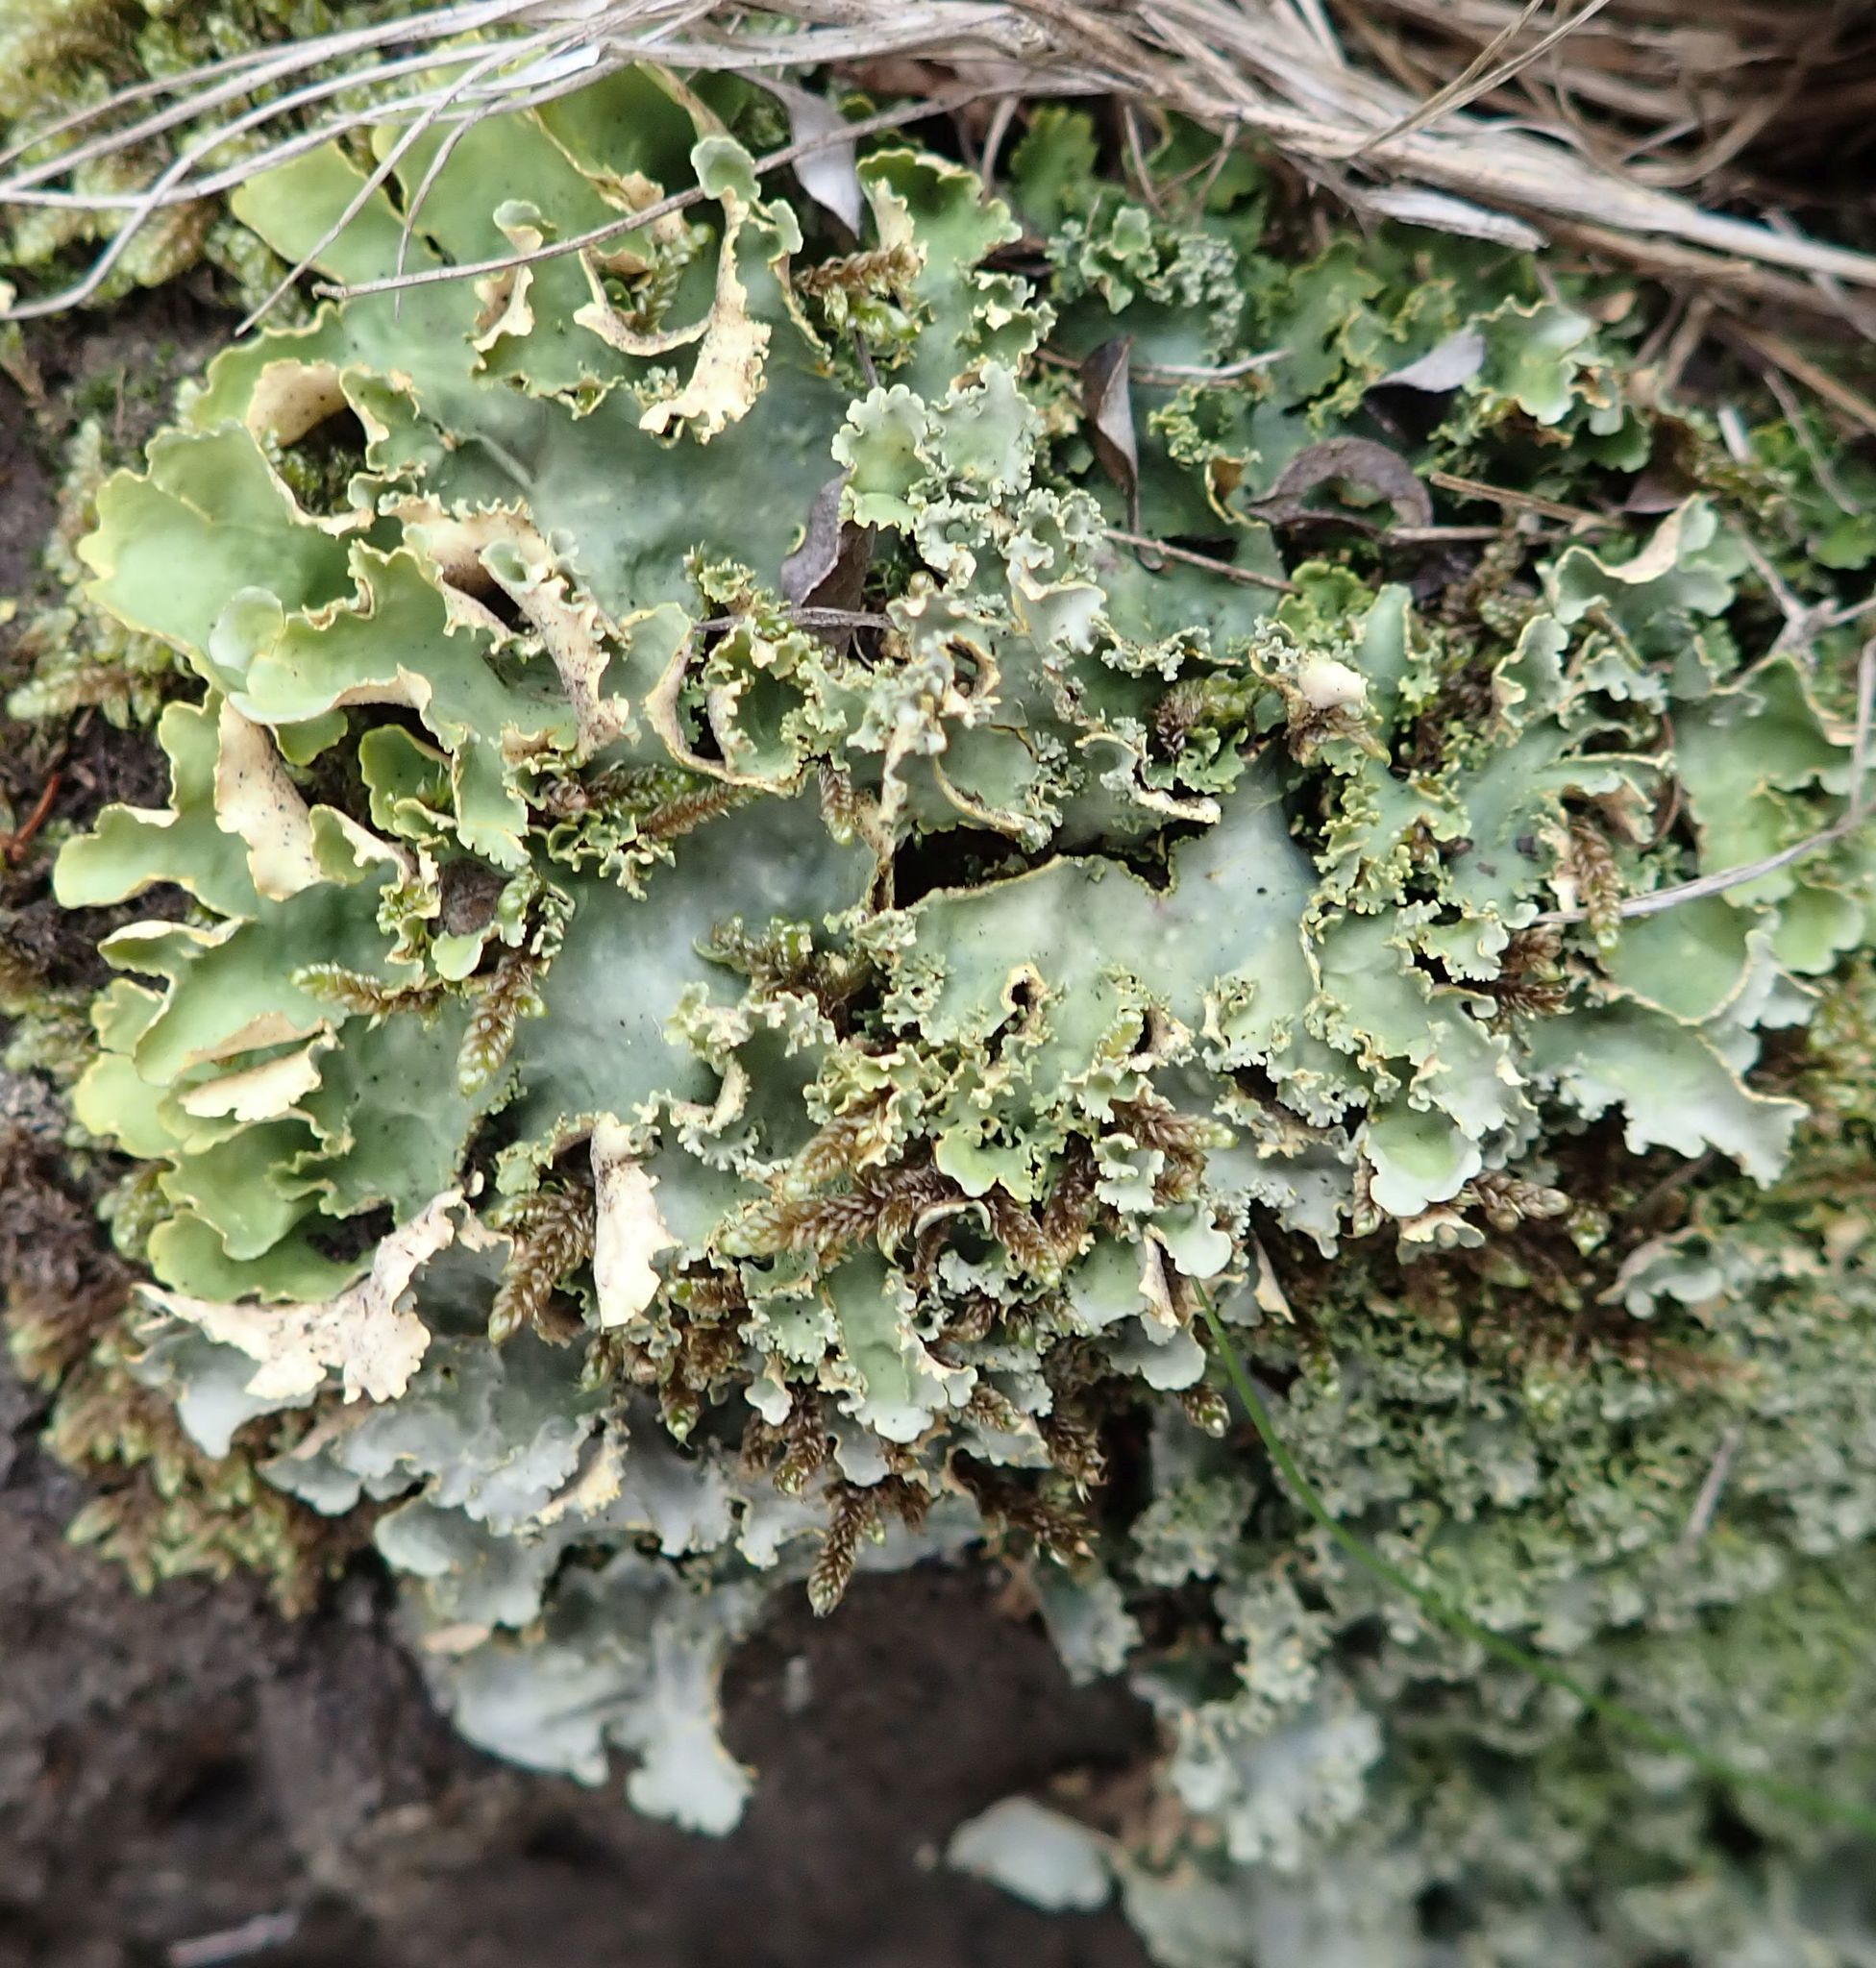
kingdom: Fungi
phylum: Ascomycota
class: Lecanoromycetes
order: Peltigerales
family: Lobariaceae
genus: Podostictina
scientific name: Podostictina pickeringii
